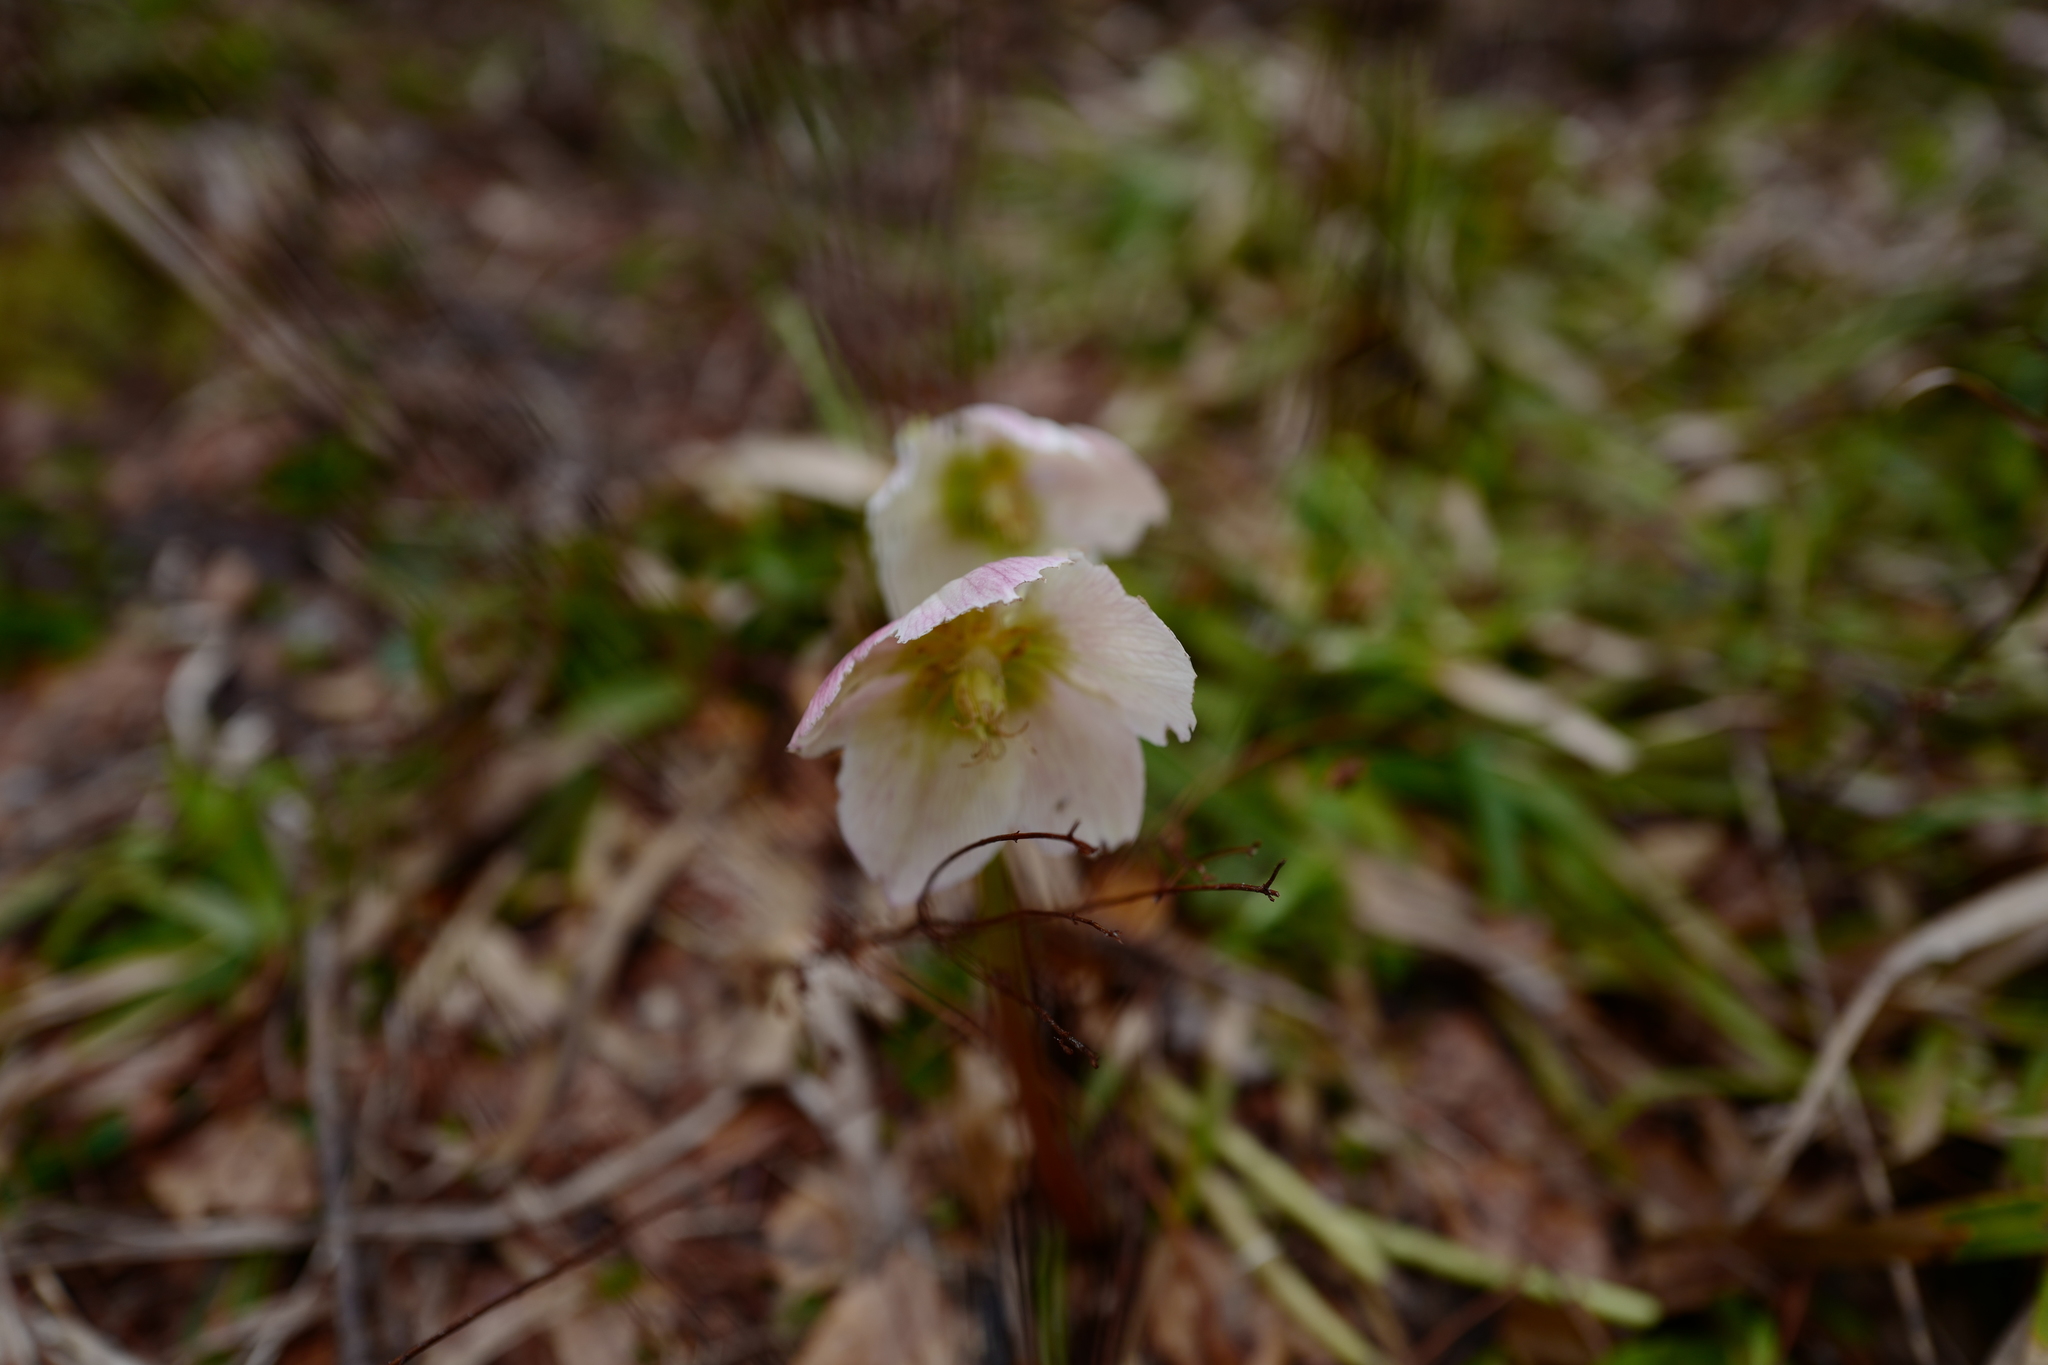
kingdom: Plantae
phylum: Tracheophyta
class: Magnoliopsida
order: Ranunculales
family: Ranunculaceae
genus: Helleborus
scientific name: Helleborus niger
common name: Black hellebore
